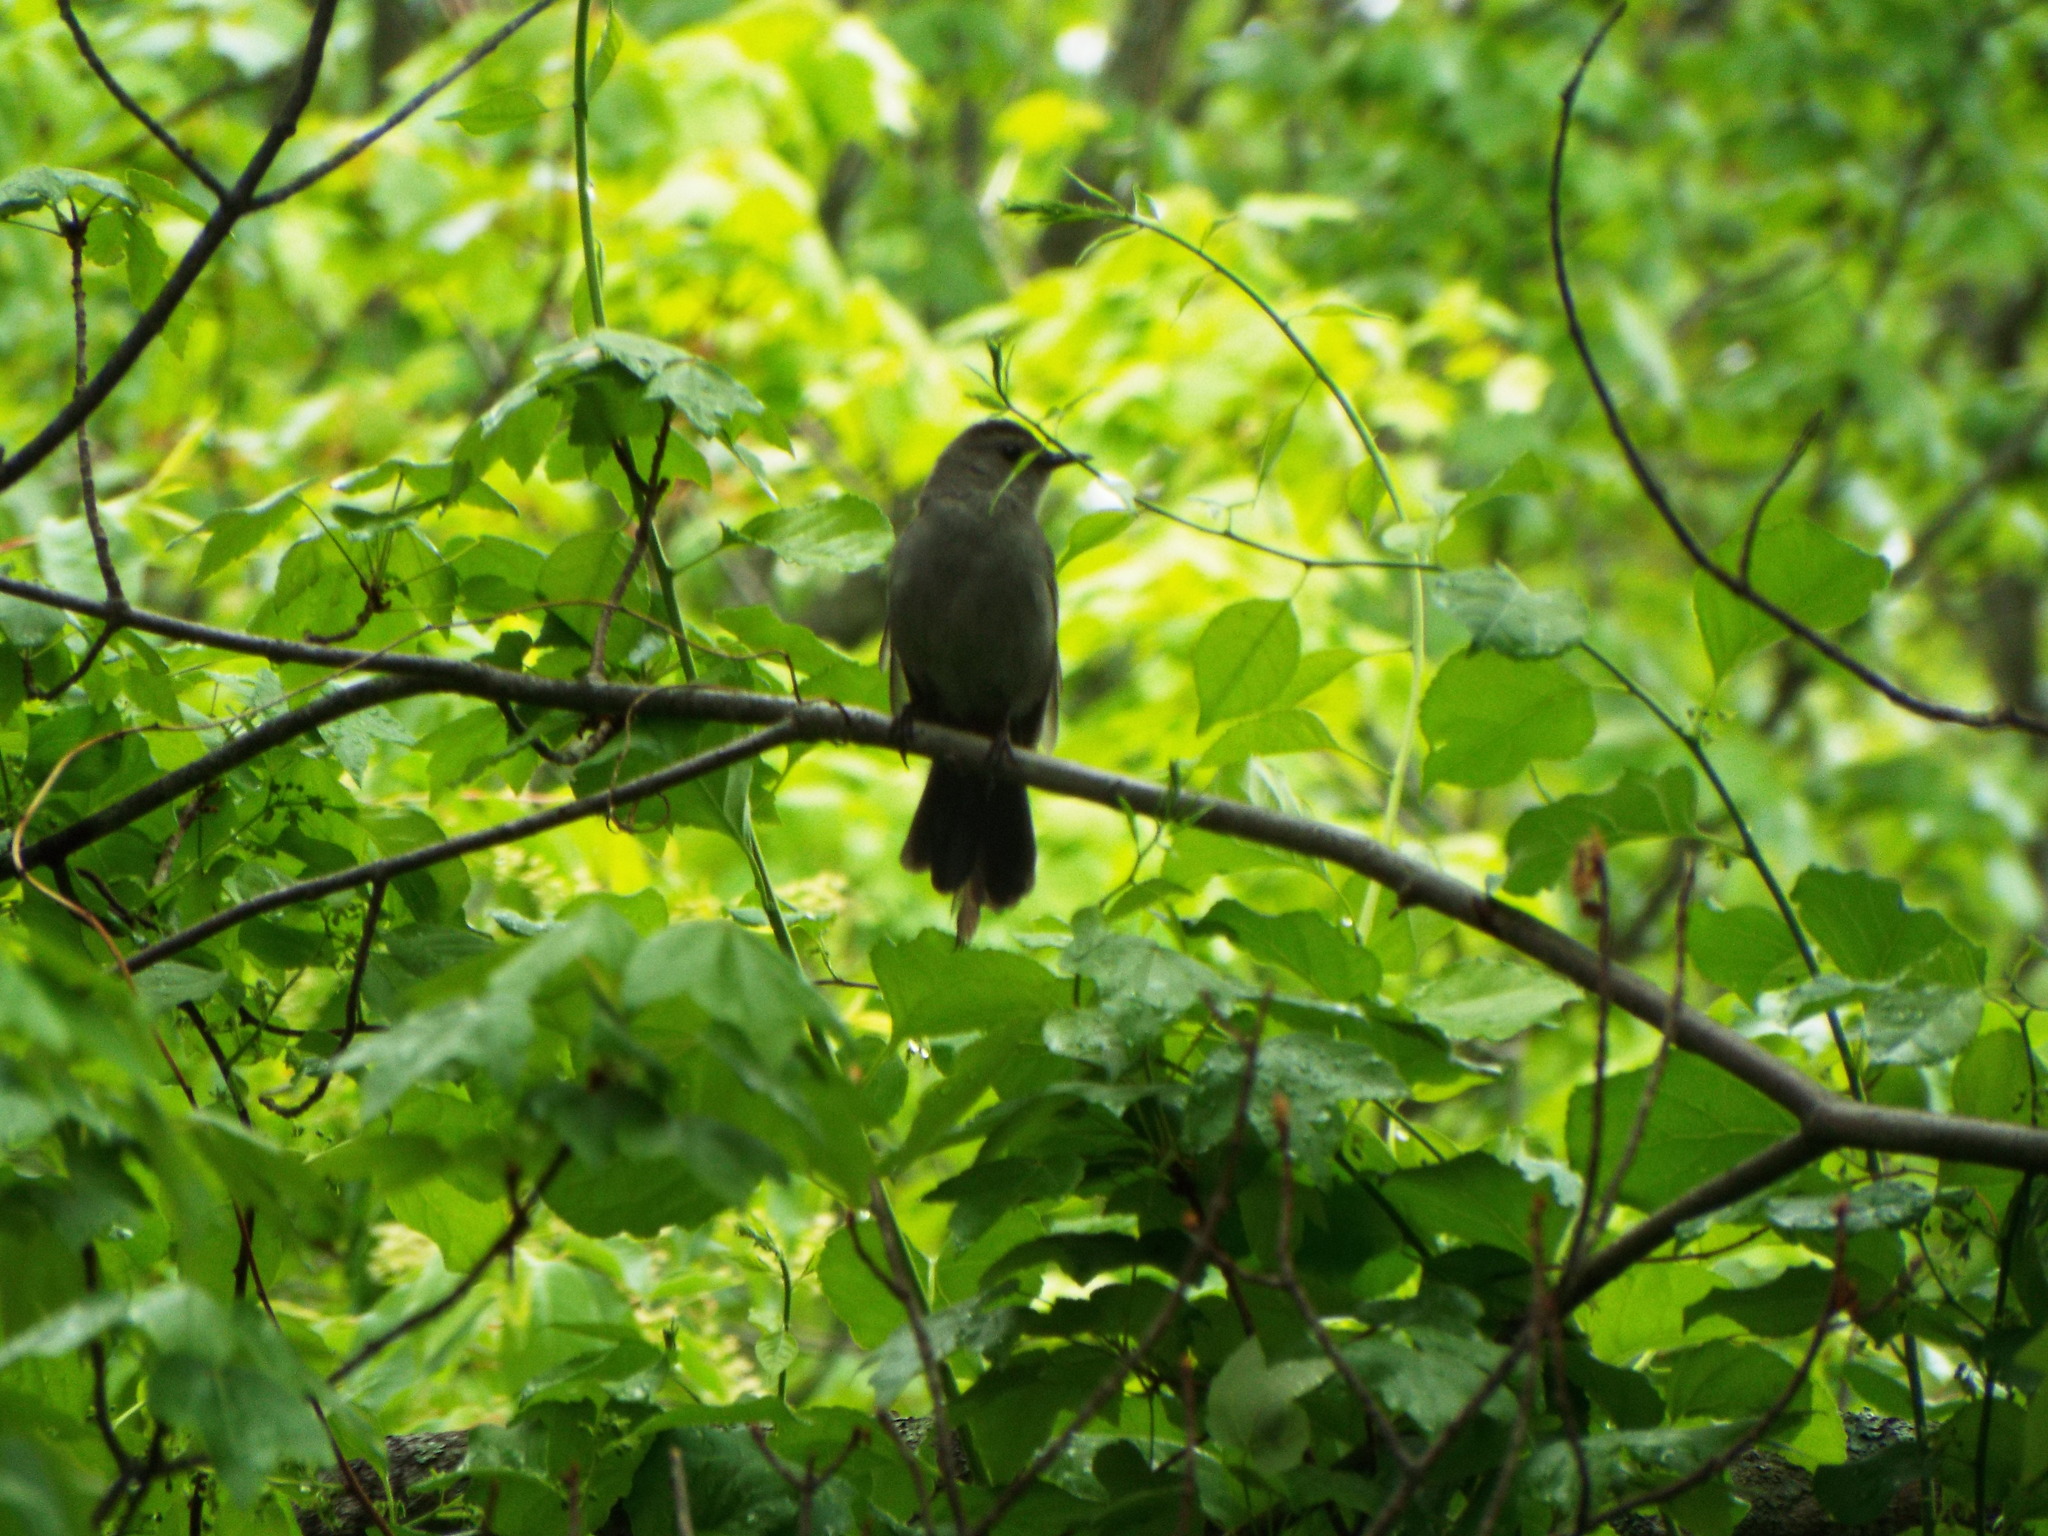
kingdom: Animalia
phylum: Chordata
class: Aves
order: Passeriformes
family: Mimidae
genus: Dumetella
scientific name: Dumetella carolinensis
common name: Gray catbird
